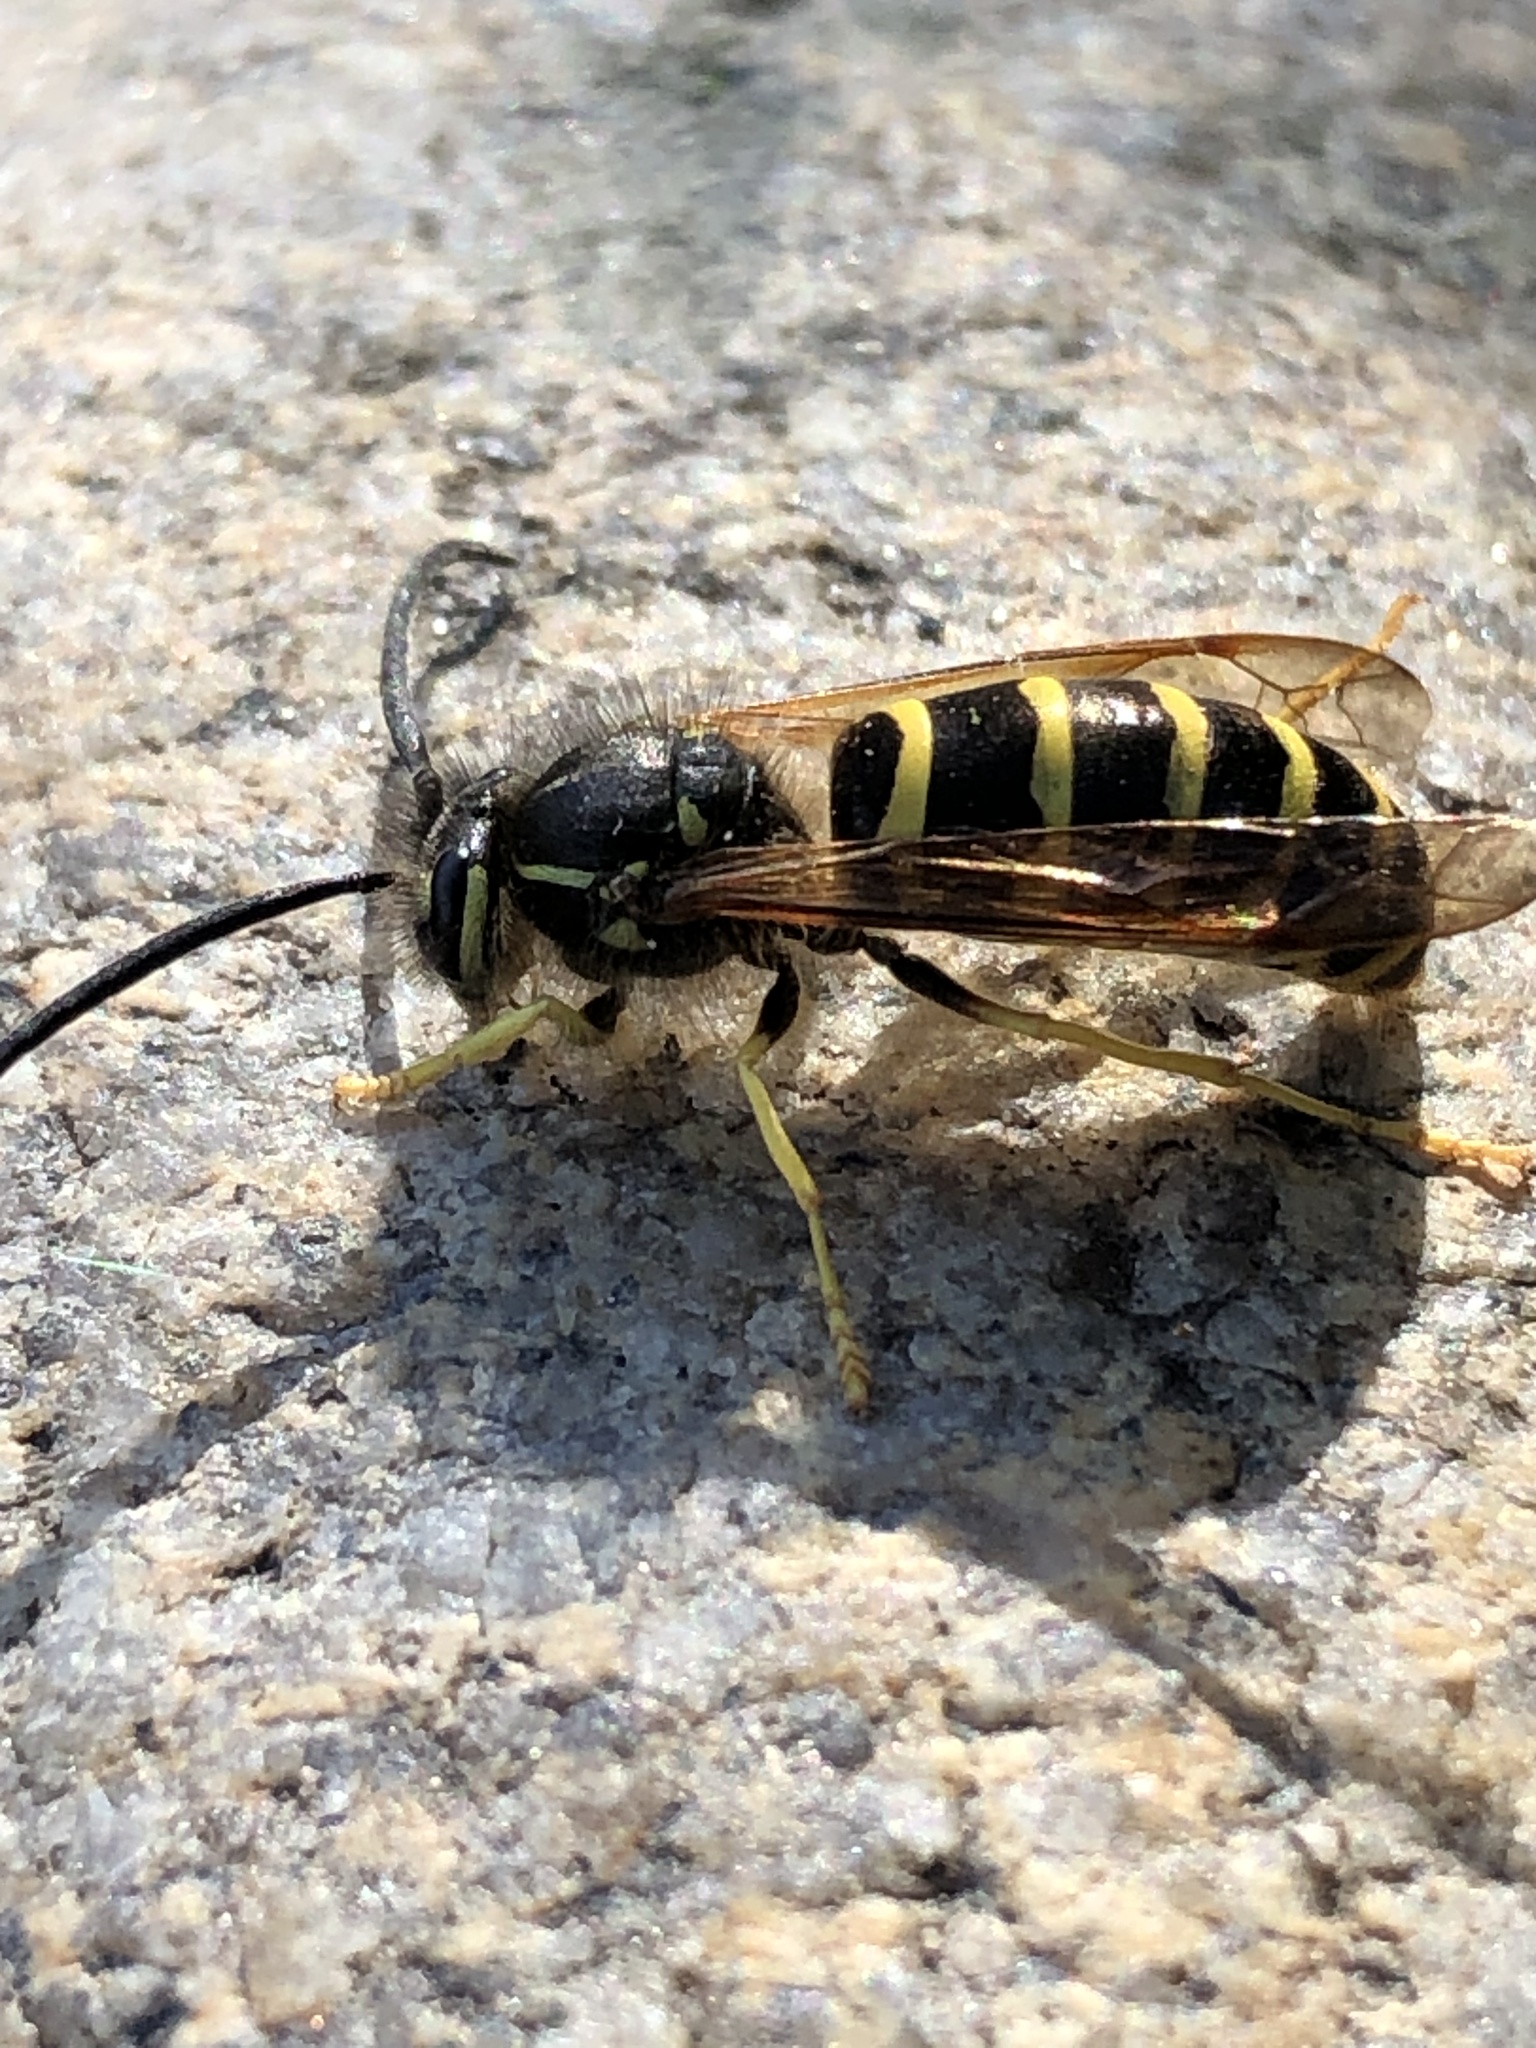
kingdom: Animalia
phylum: Arthropoda
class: Insecta
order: Hymenoptera
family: Vespidae
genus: Vespula
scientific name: Vespula
